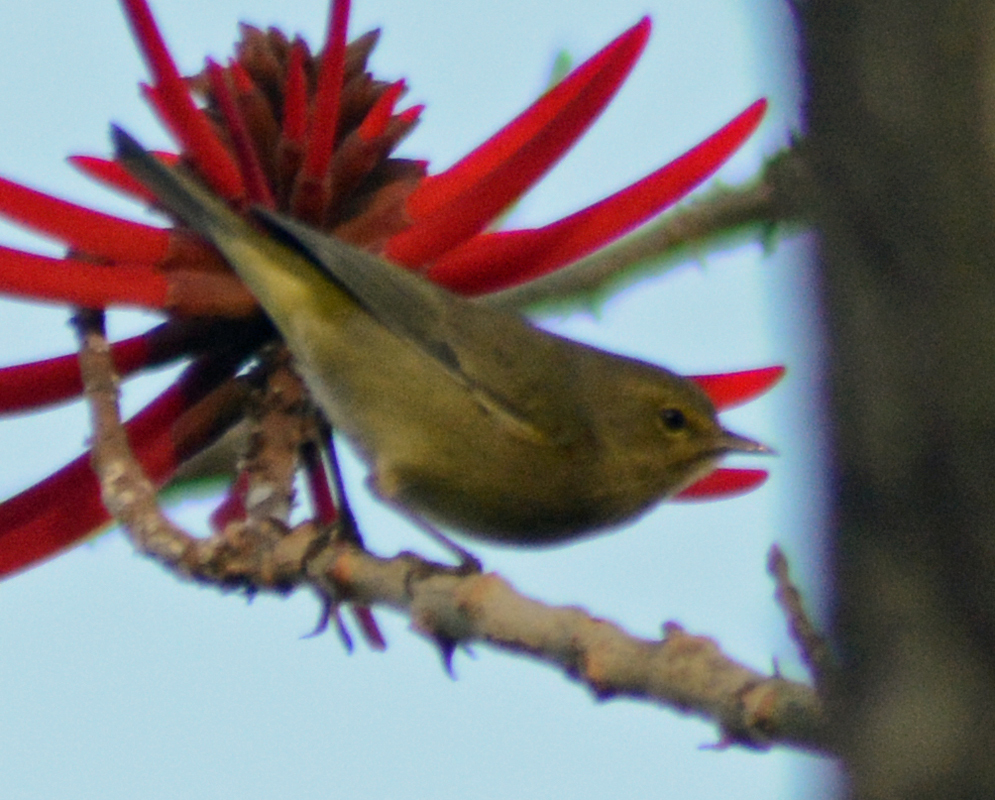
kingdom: Animalia
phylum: Chordata
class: Aves
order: Passeriformes
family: Parulidae
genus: Leiothlypis
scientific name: Leiothlypis celata
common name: Orange-crowned warbler
